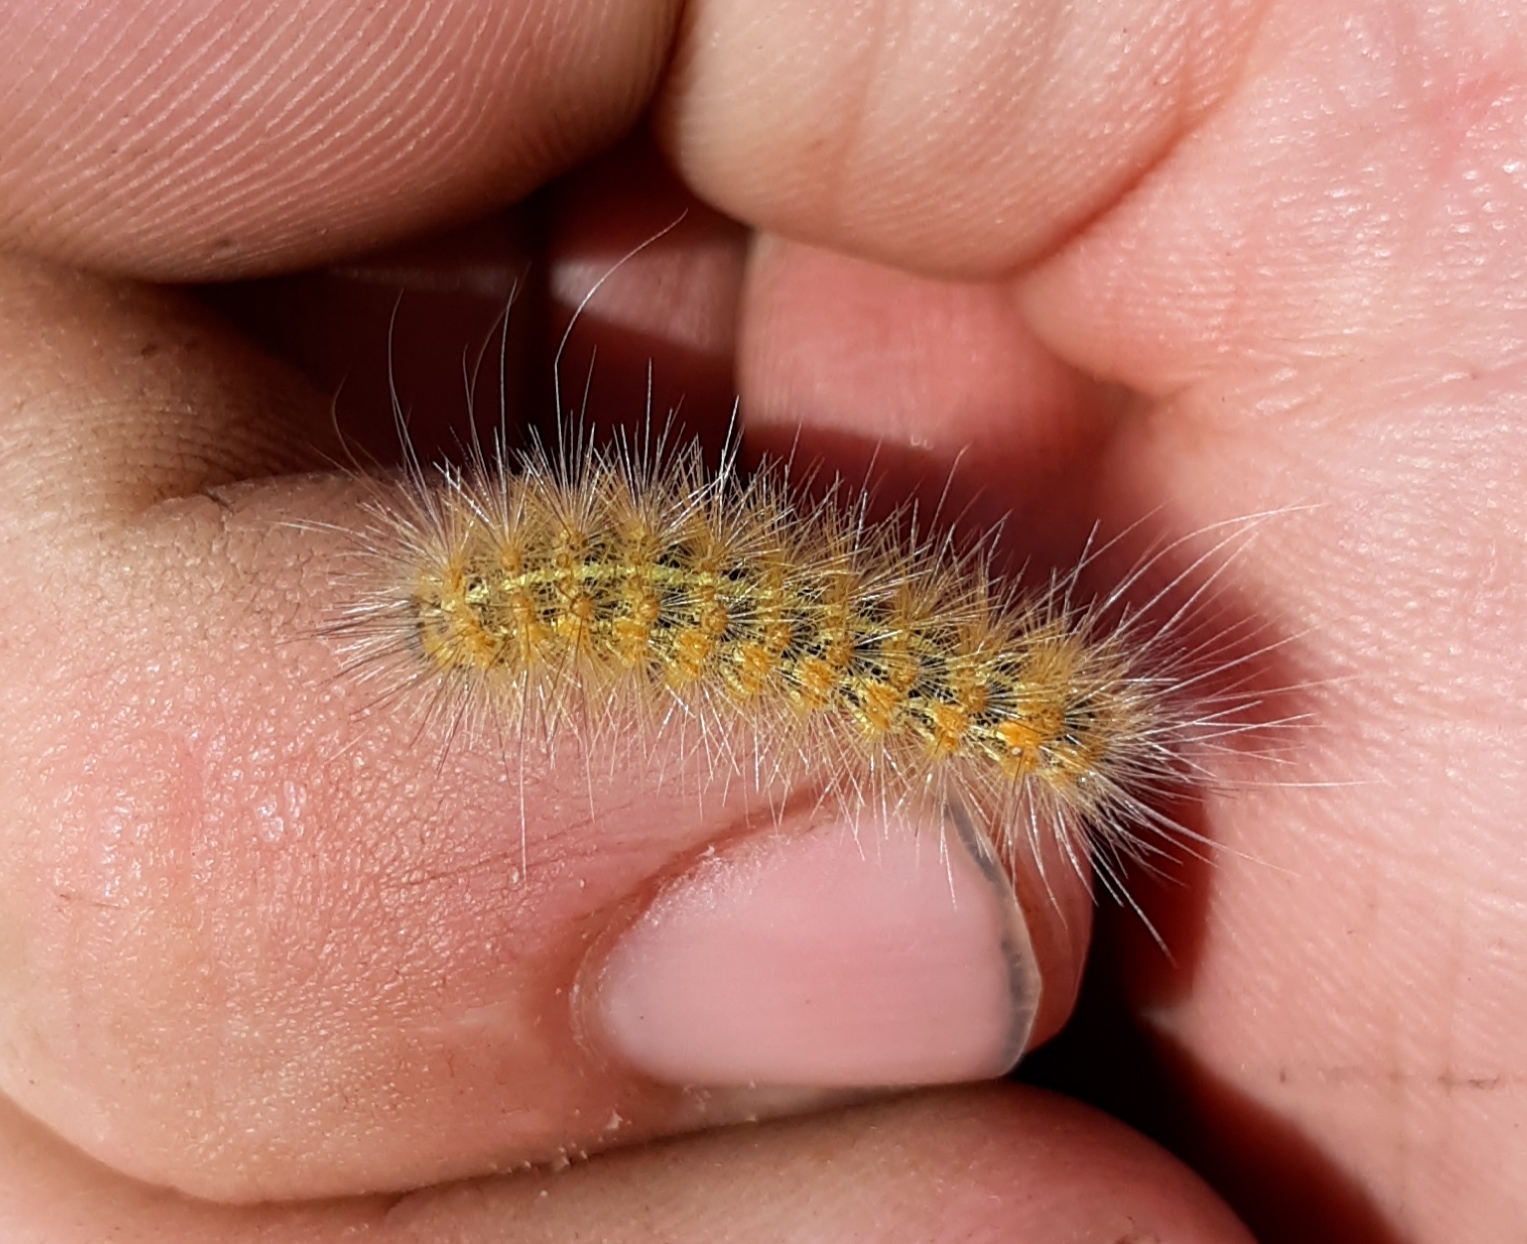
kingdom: Animalia
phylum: Arthropoda
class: Insecta
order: Lepidoptera
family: Erebidae
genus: Estigmene
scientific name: Estigmene acrea
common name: Salt marsh moth
